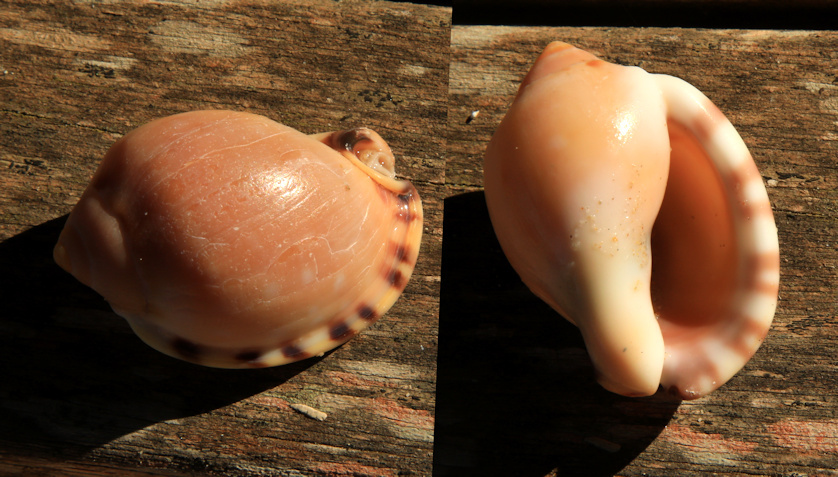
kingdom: Animalia
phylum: Mollusca
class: Gastropoda
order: Littorinimorpha
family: Cassidae
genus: Semicassis
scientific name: Semicassis zeylanica
